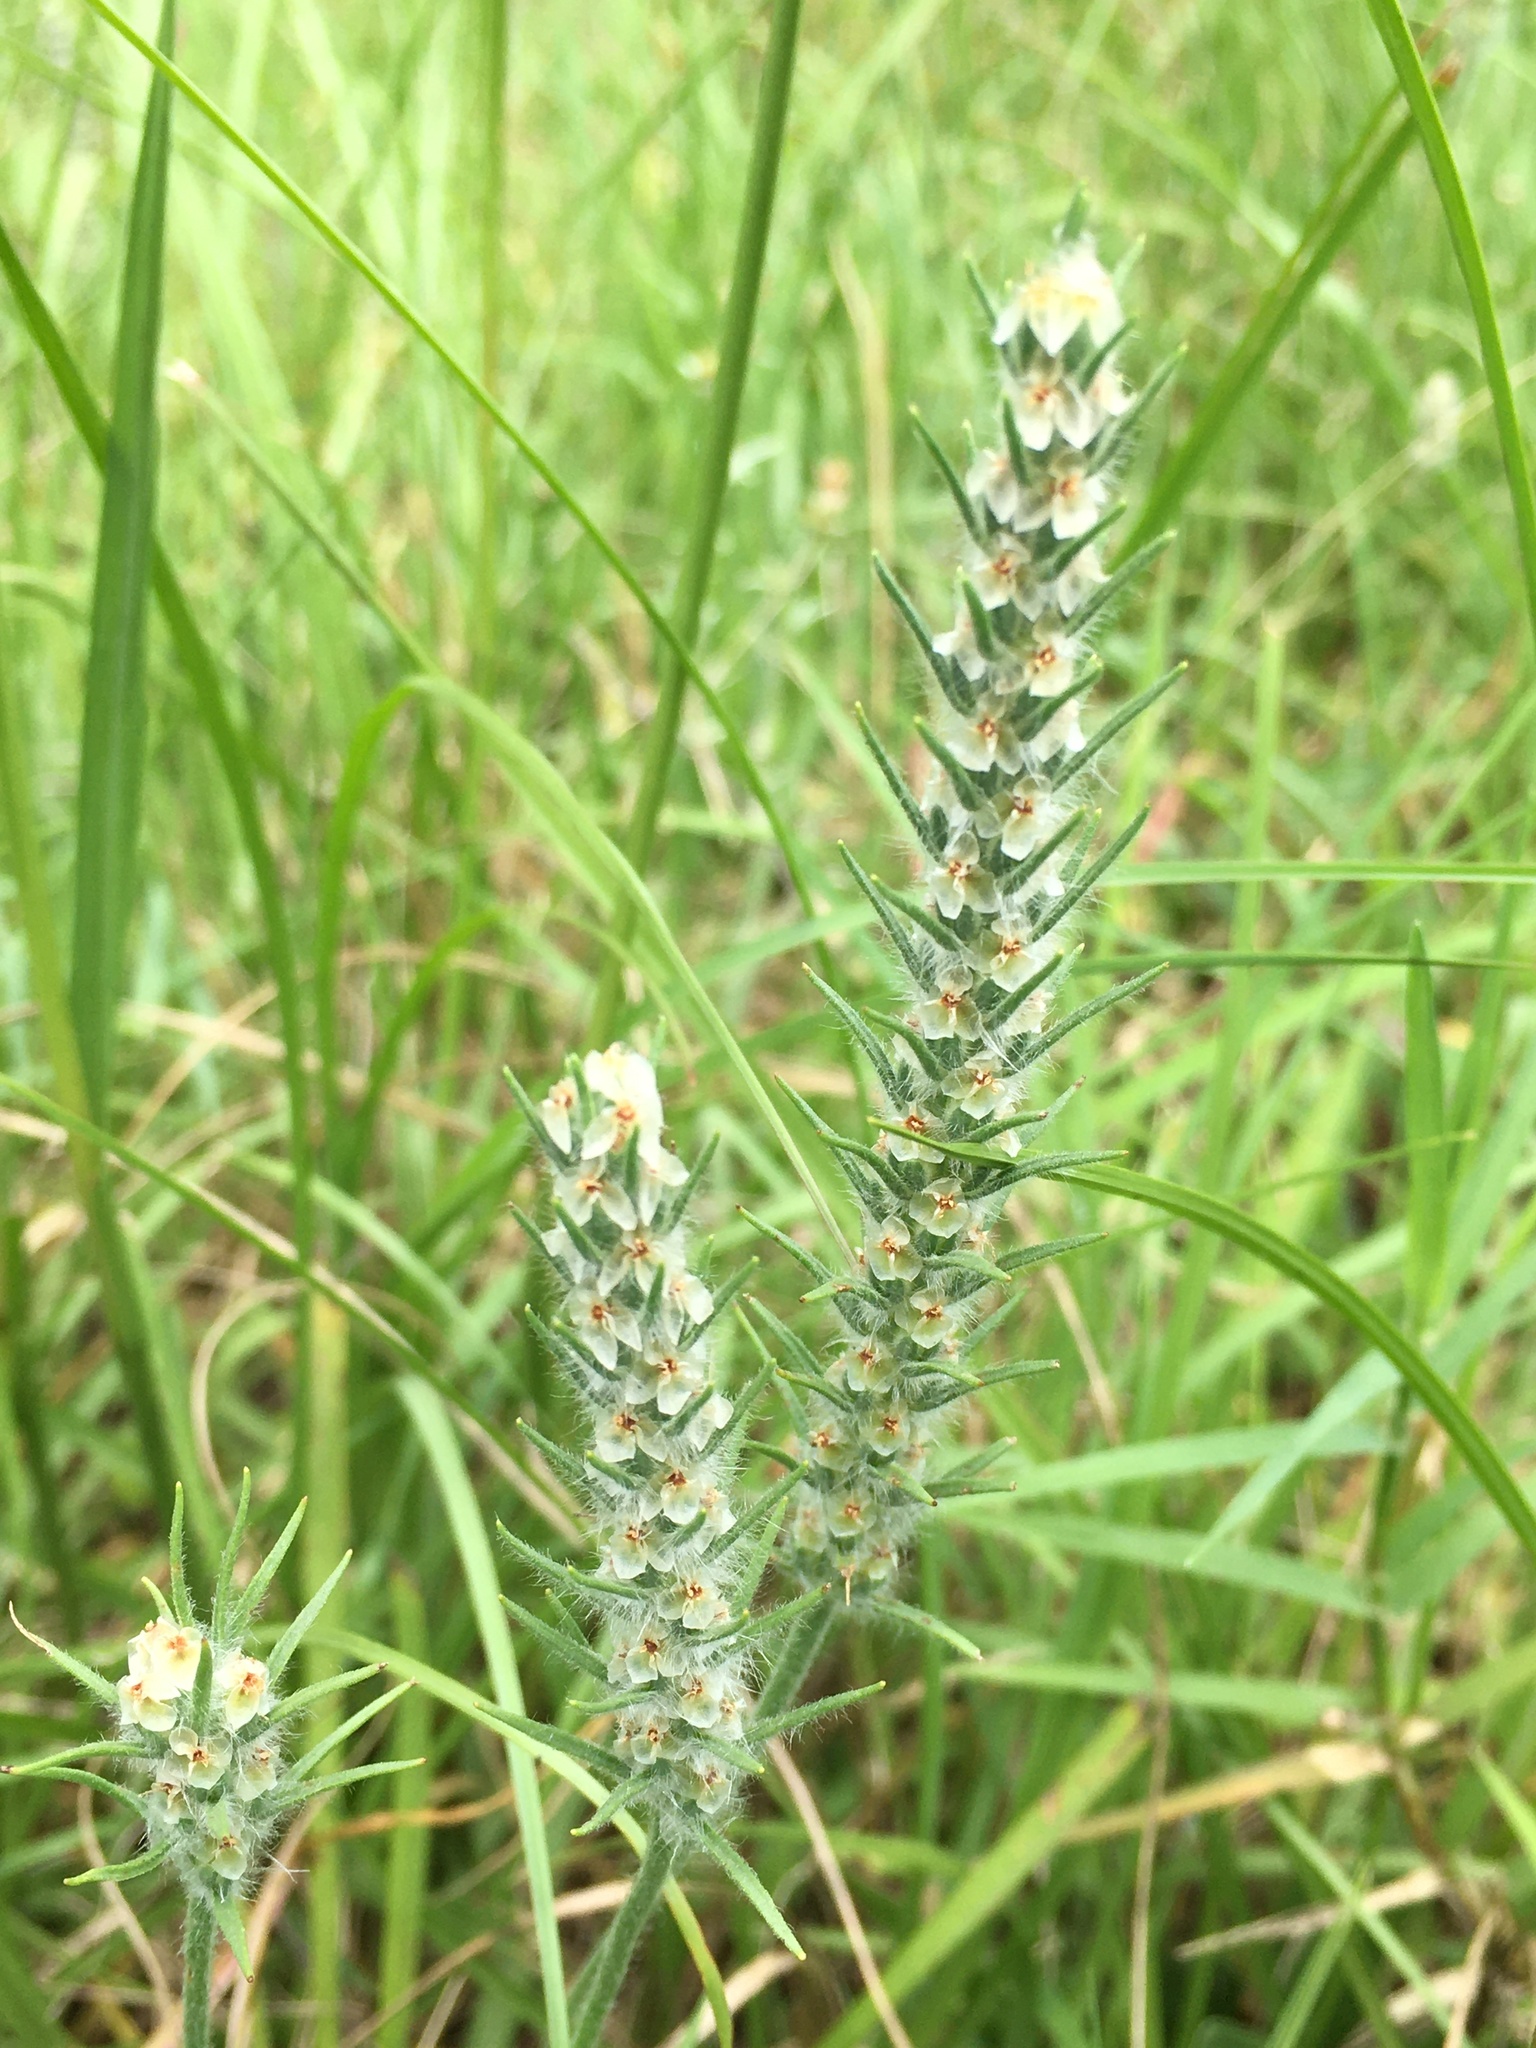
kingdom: Plantae
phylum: Tracheophyta
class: Magnoliopsida
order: Lamiales
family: Plantaginaceae
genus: Plantago
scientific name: Plantago aristata
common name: Bracted plantain
